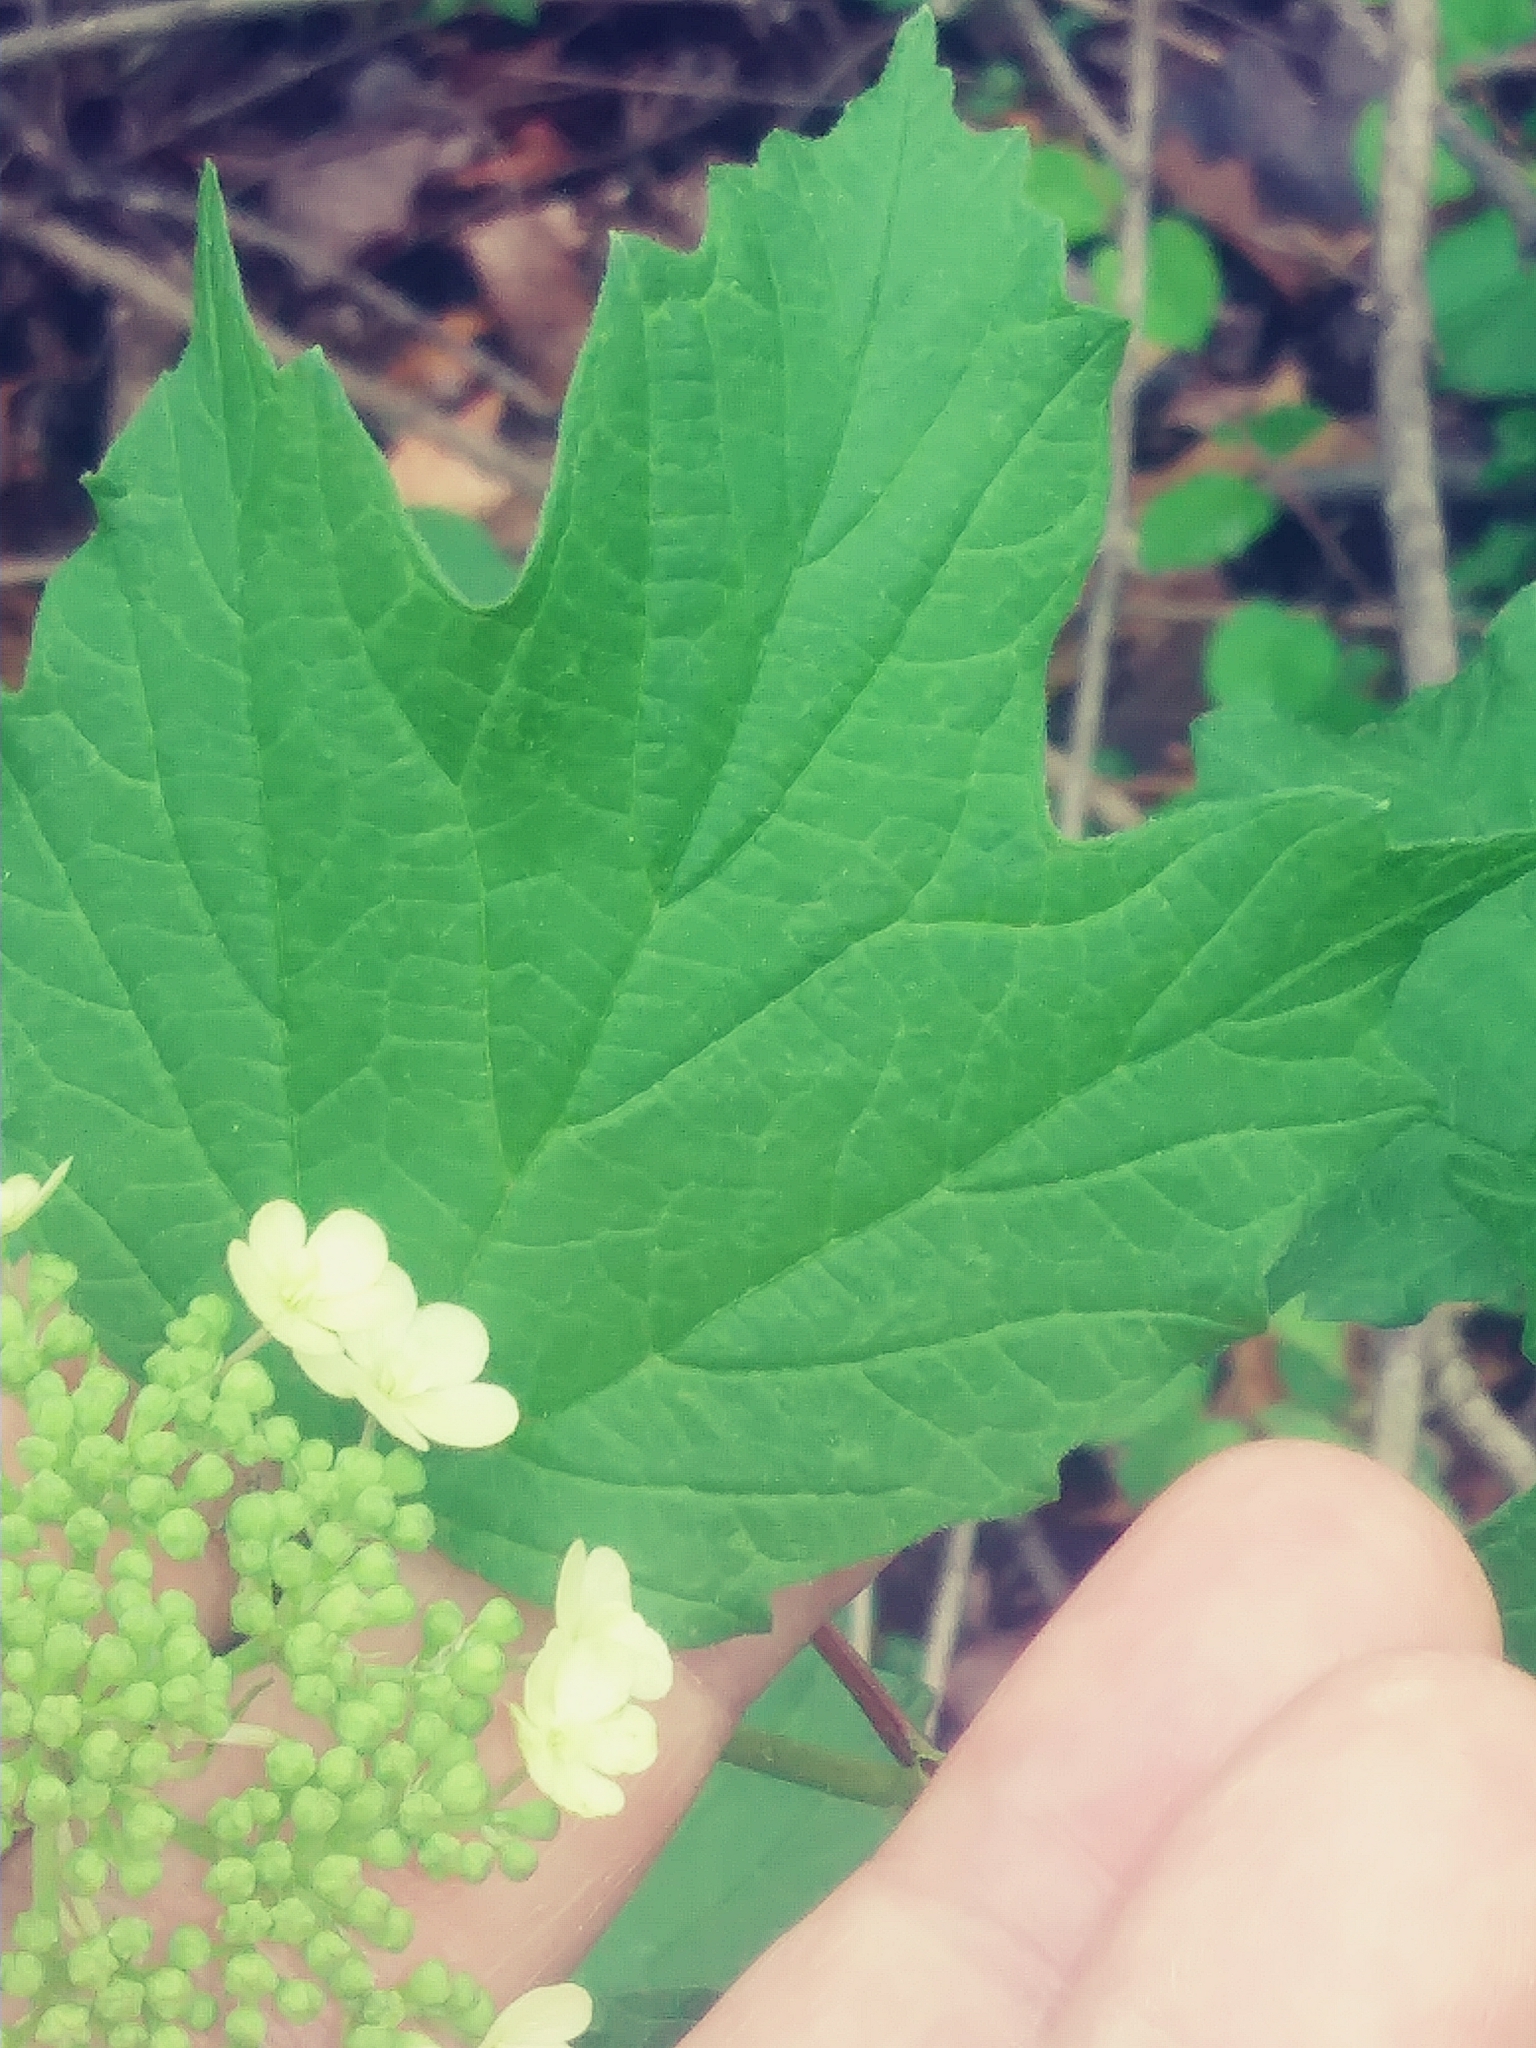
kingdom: Plantae
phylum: Tracheophyta
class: Magnoliopsida
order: Dipsacales
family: Viburnaceae
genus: Viburnum
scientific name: Viburnum acerifolium
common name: Dockmackie
